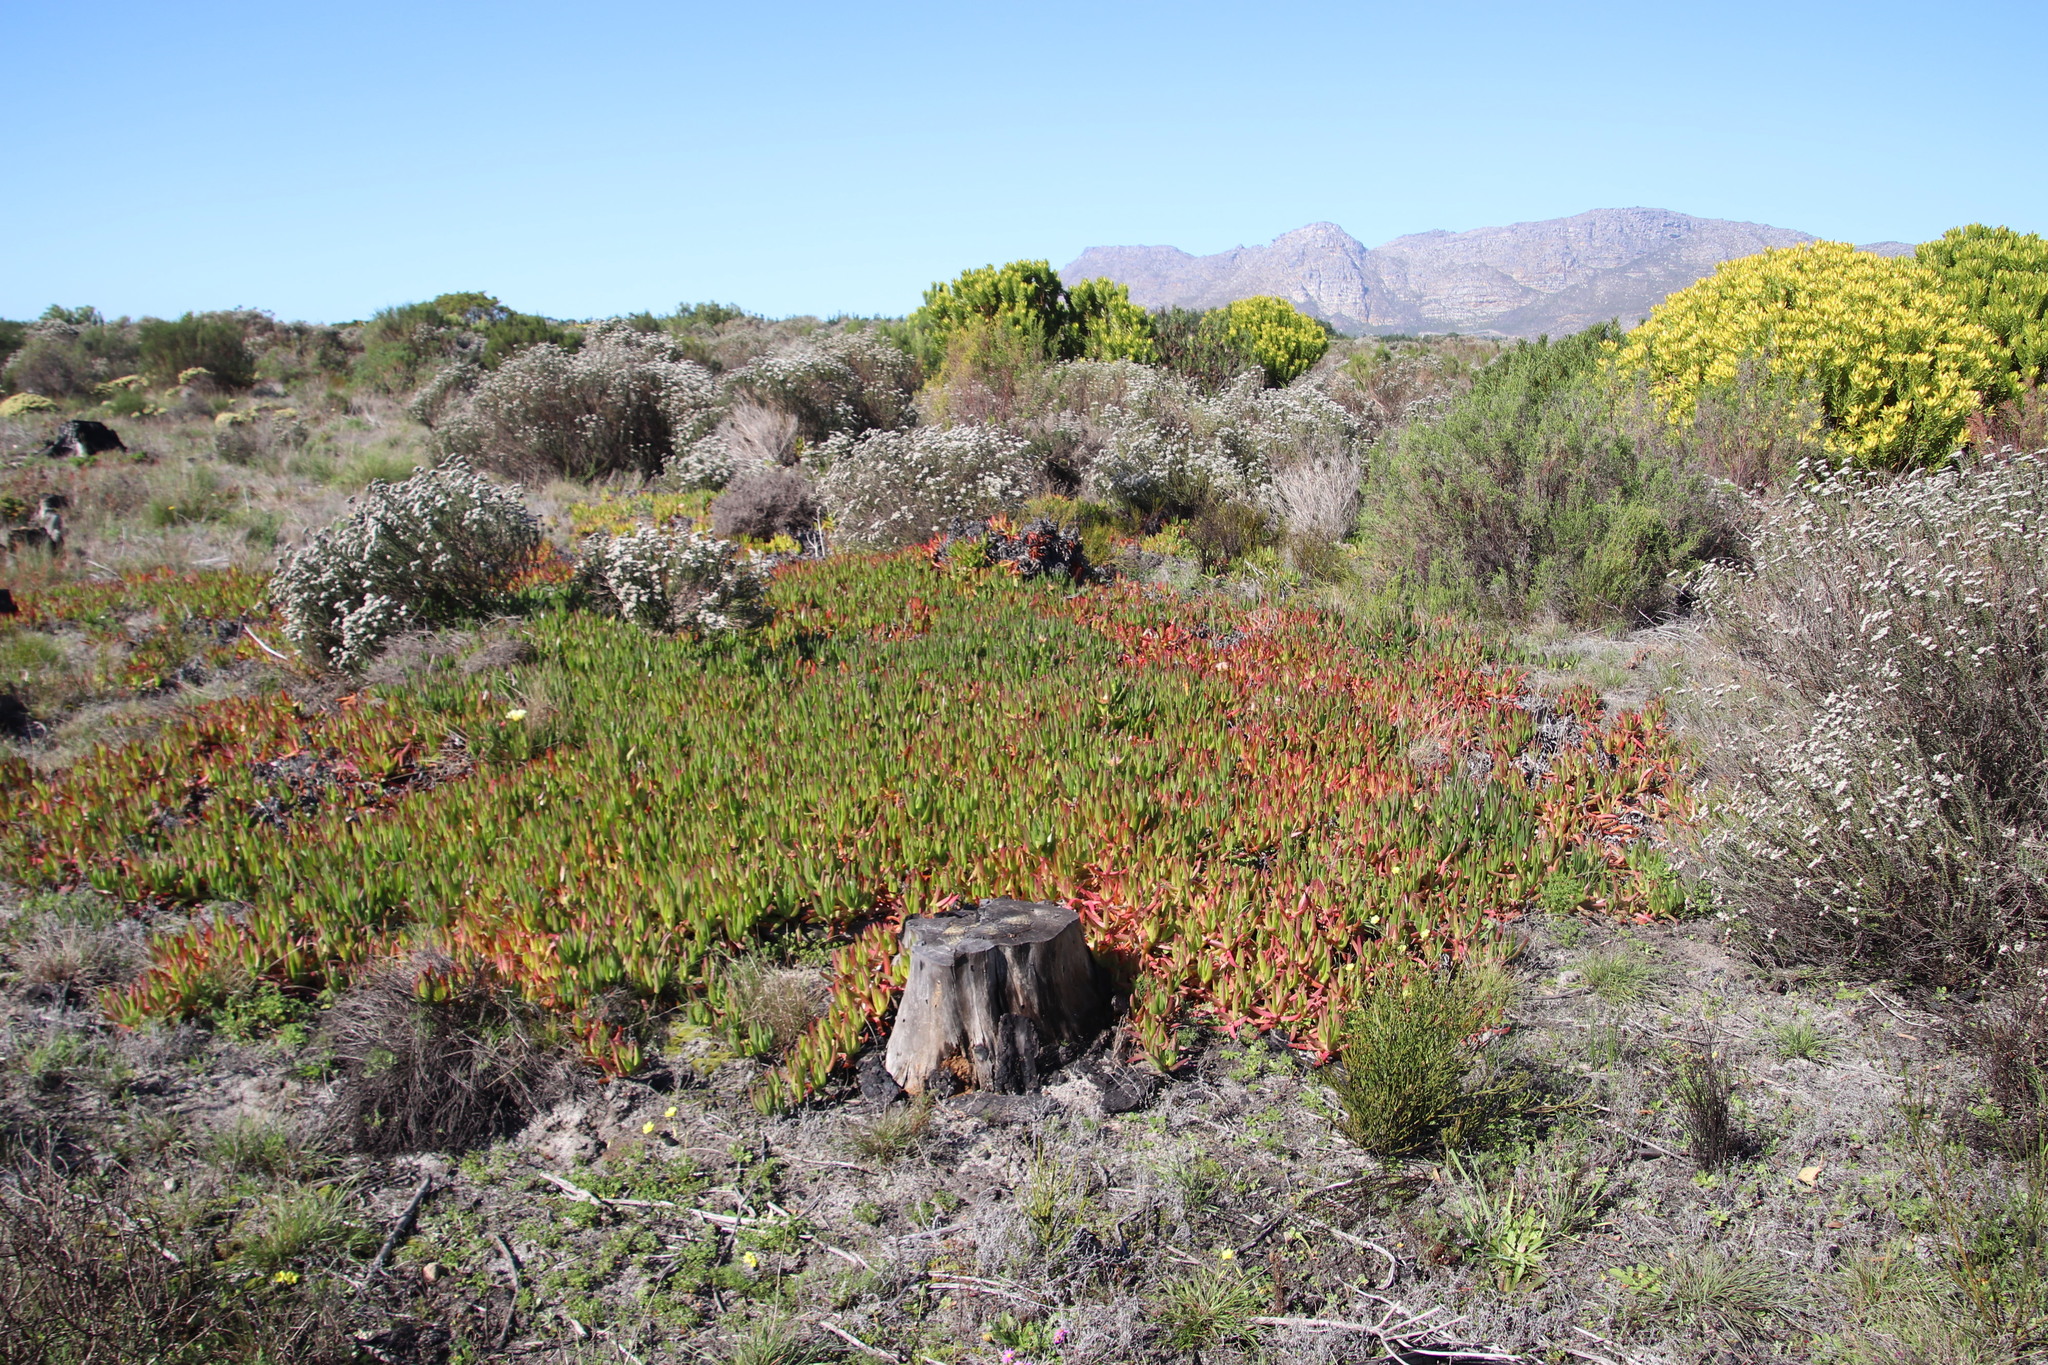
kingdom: Plantae
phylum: Tracheophyta
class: Magnoliopsida
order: Caryophyllales
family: Aizoaceae
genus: Carpobrotus
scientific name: Carpobrotus edulis
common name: Hottentot-fig
